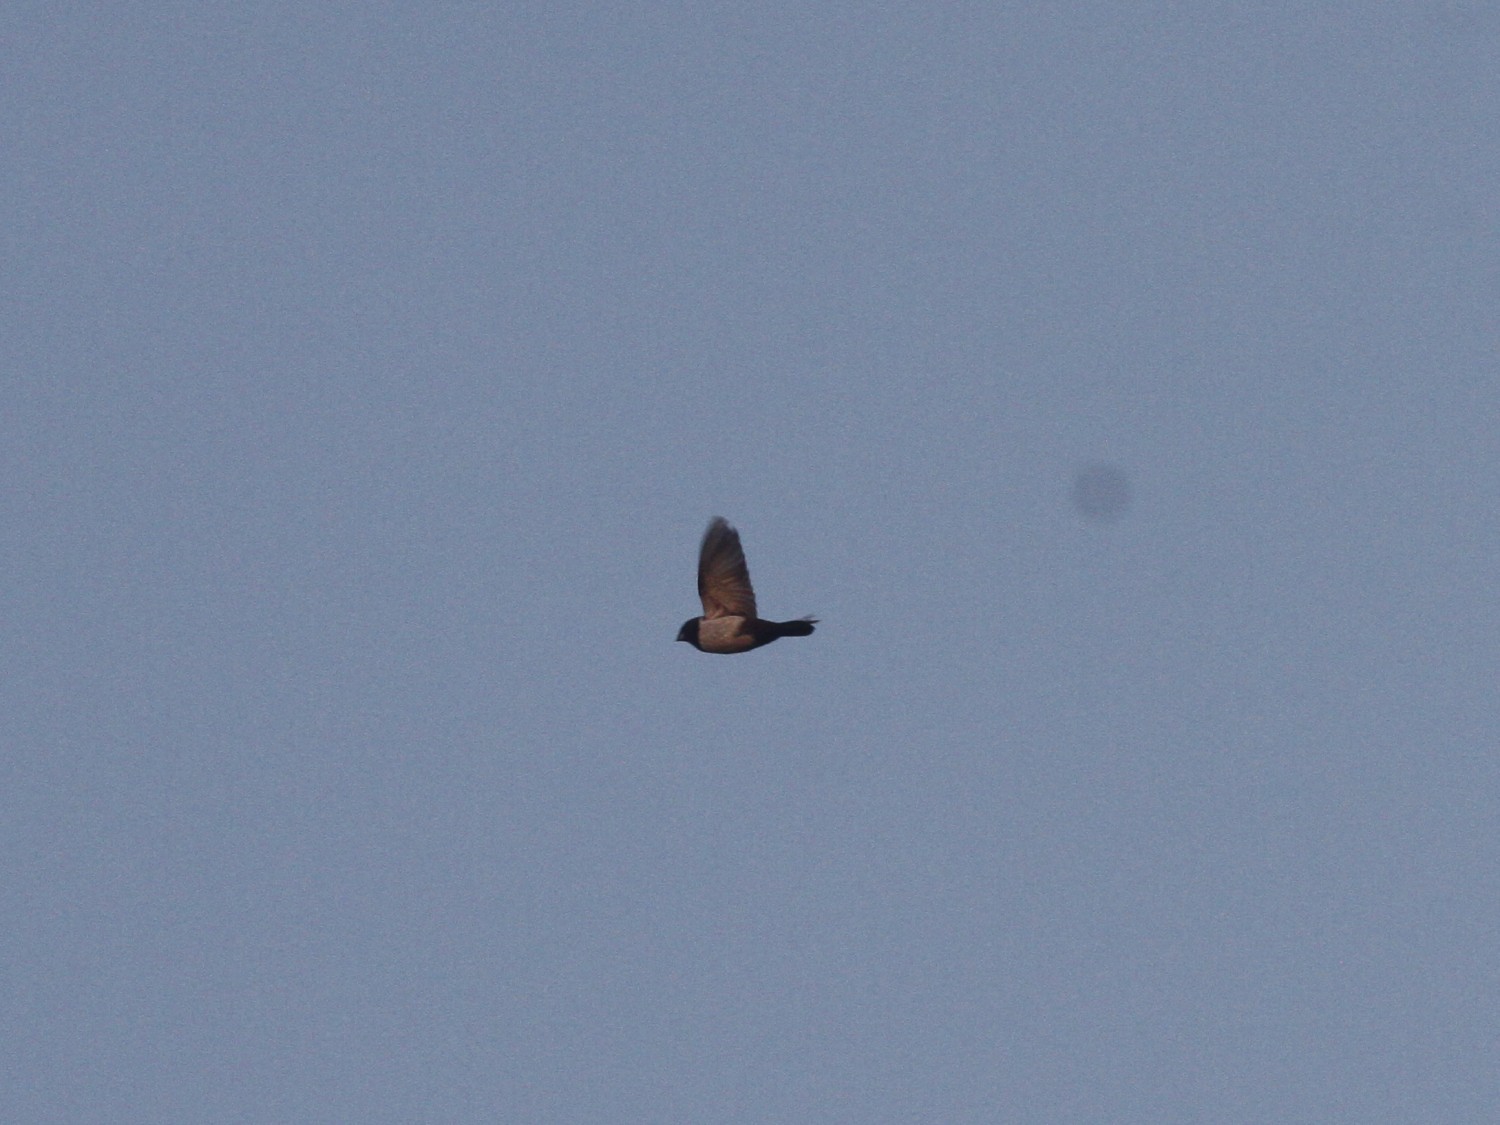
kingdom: Animalia
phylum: Chordata
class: Aves
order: Passeriformes
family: Estrildidae
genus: Lonchura
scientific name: Lonchura striata
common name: White-rumped munia
